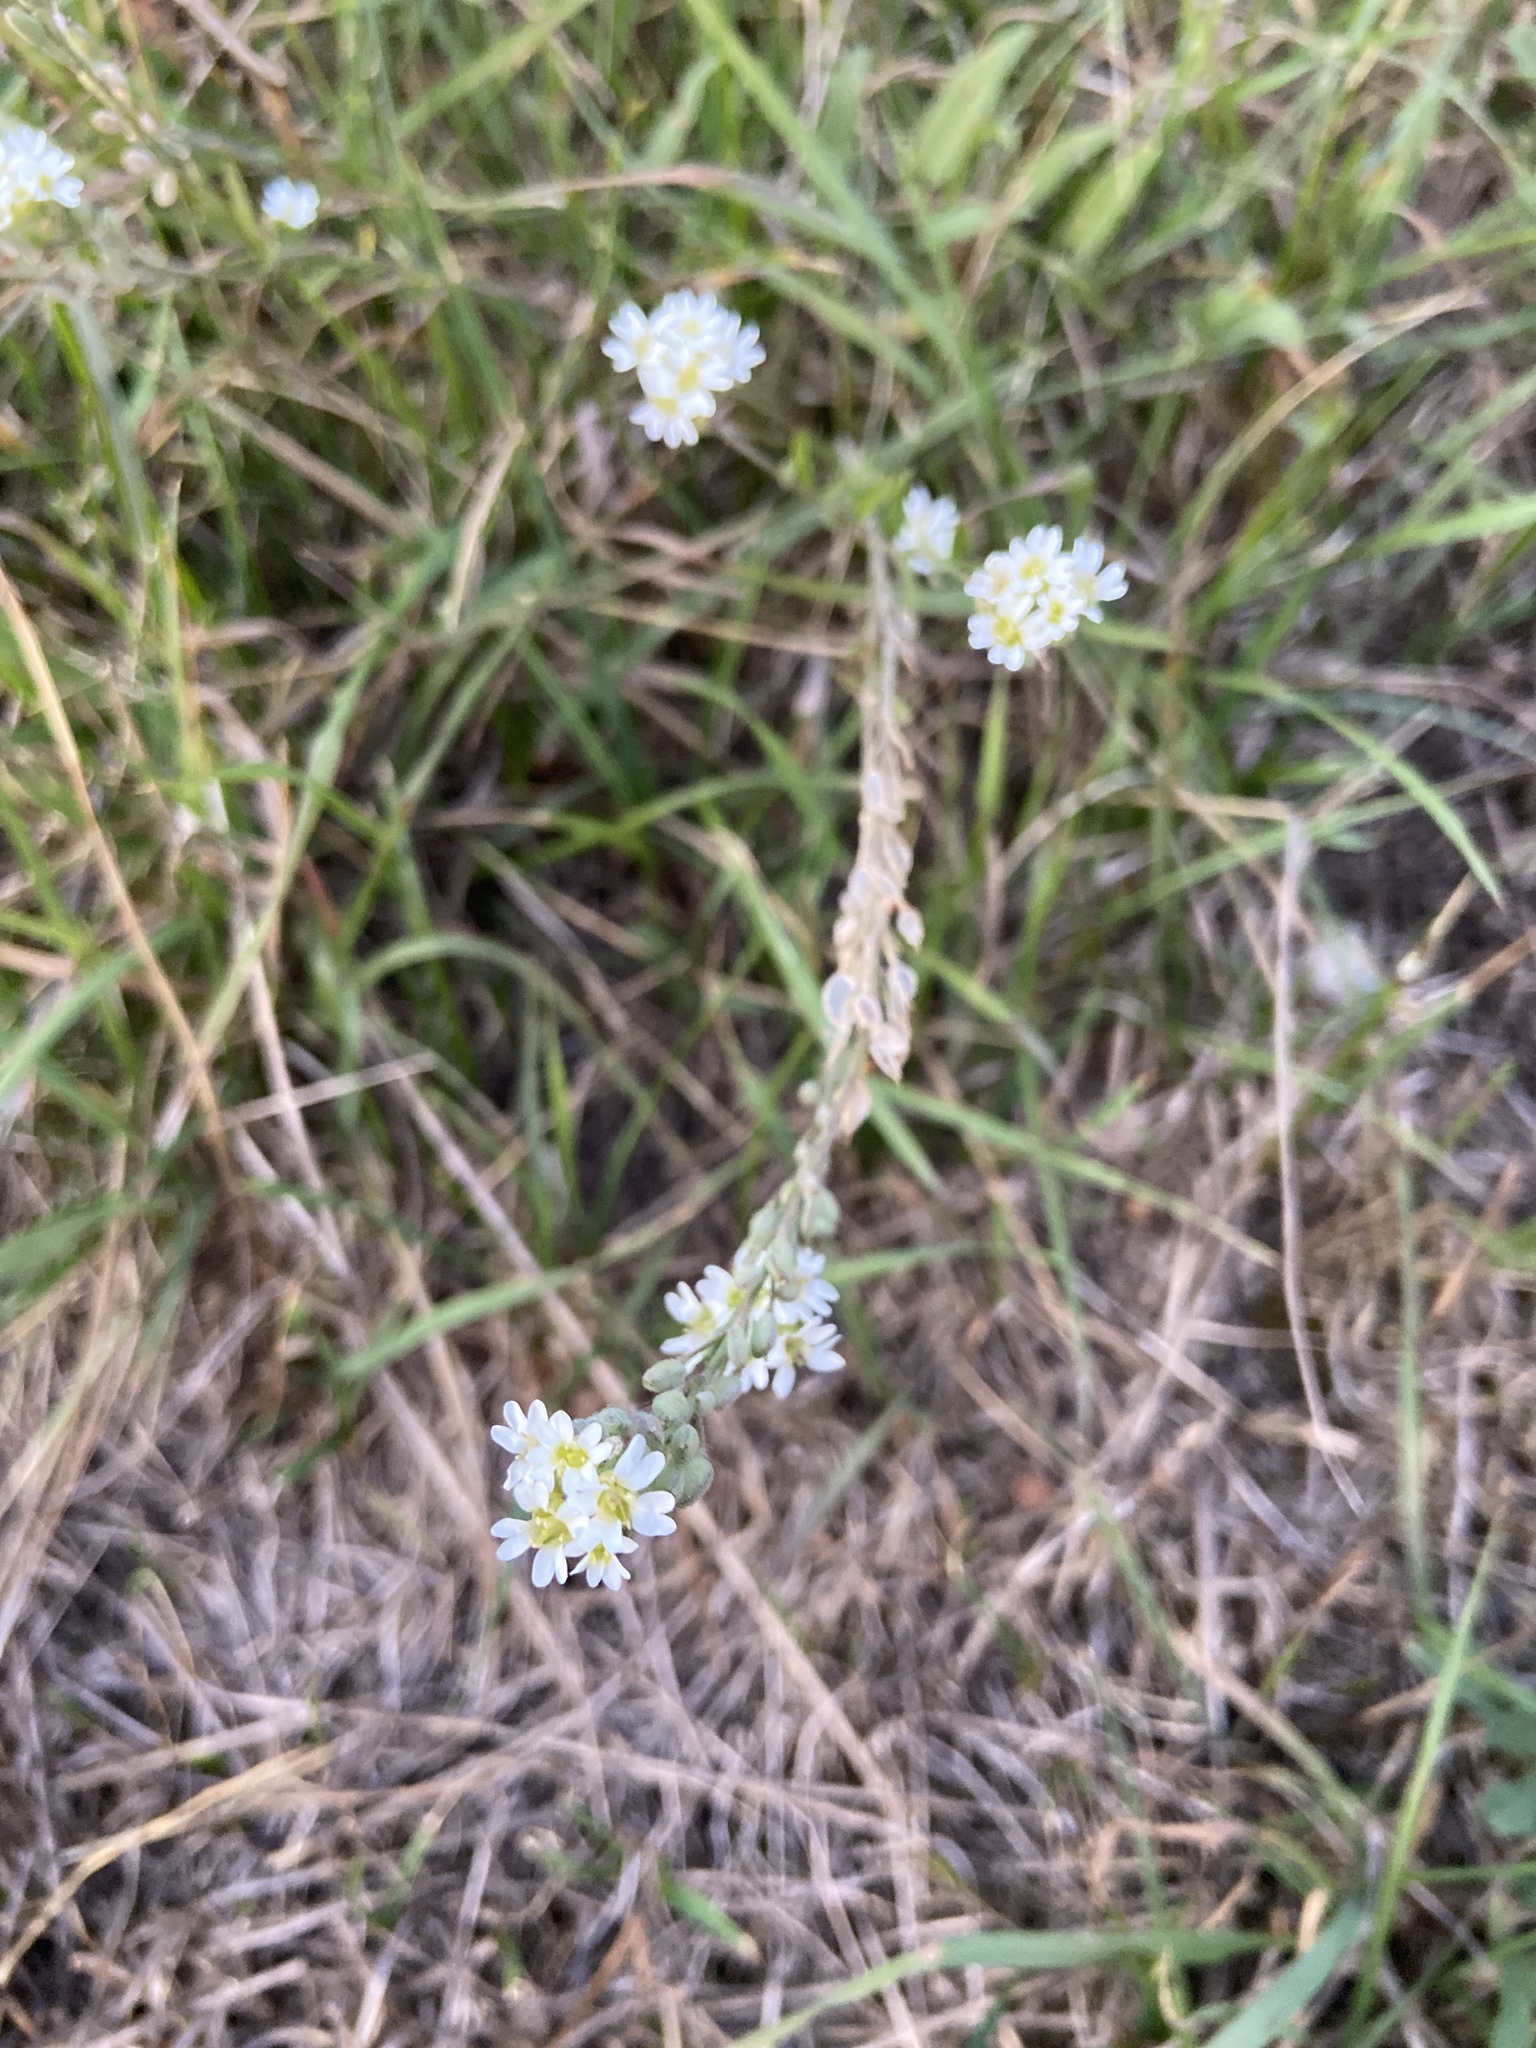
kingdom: Plantae
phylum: Tracheophyta
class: Magnoliopsida
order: Brassicales
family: Brassicaceae
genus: Berteroa
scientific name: Berteroa incana
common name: Hoary alison
